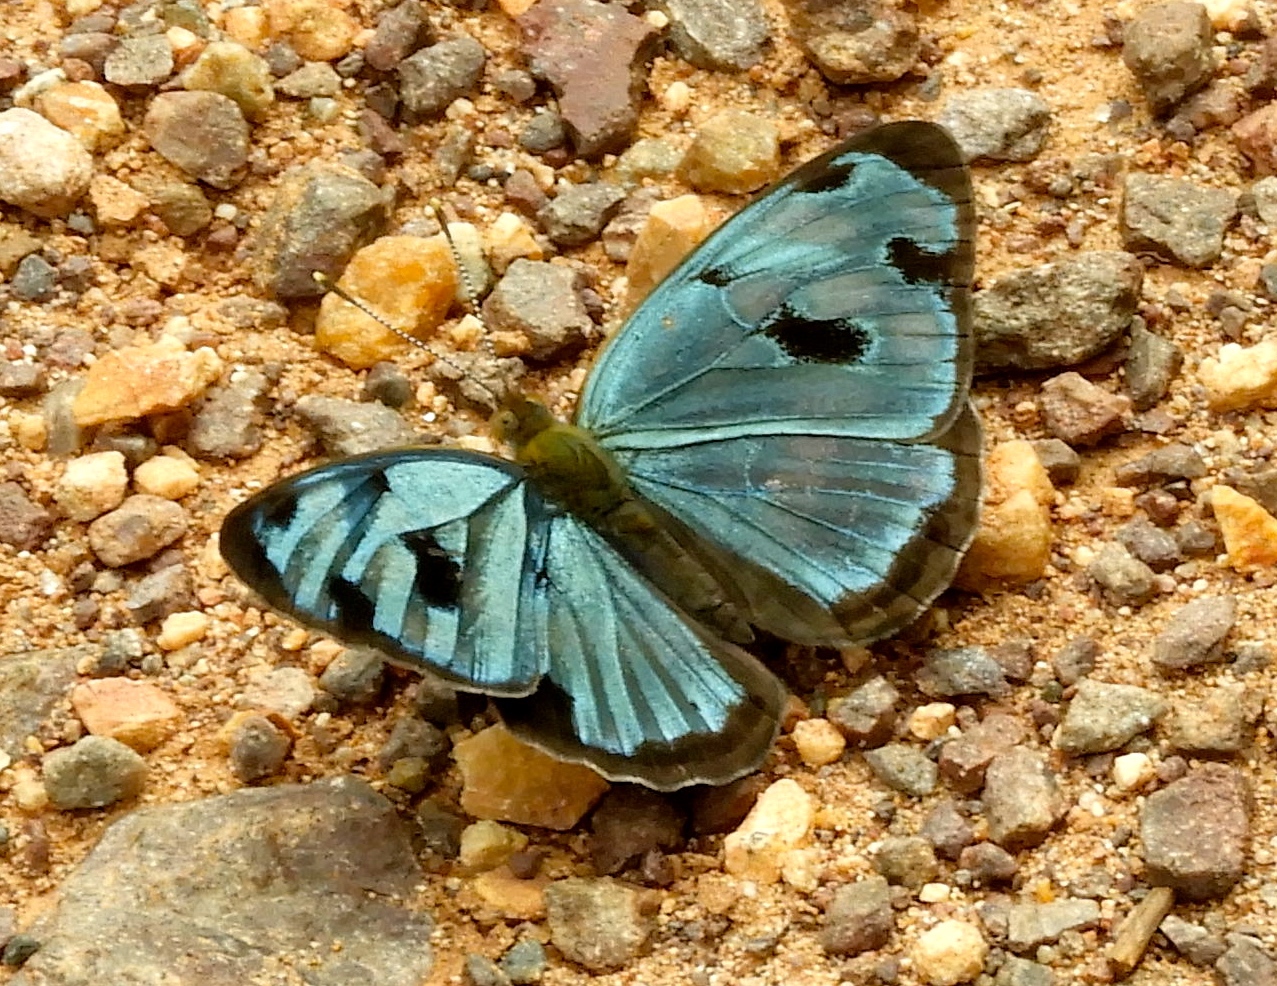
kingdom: Animalia
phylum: Arthropoda
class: Insecta
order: Lepidoptera
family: Nymphalidae
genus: Dynamine
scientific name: Dynamine mylitta
